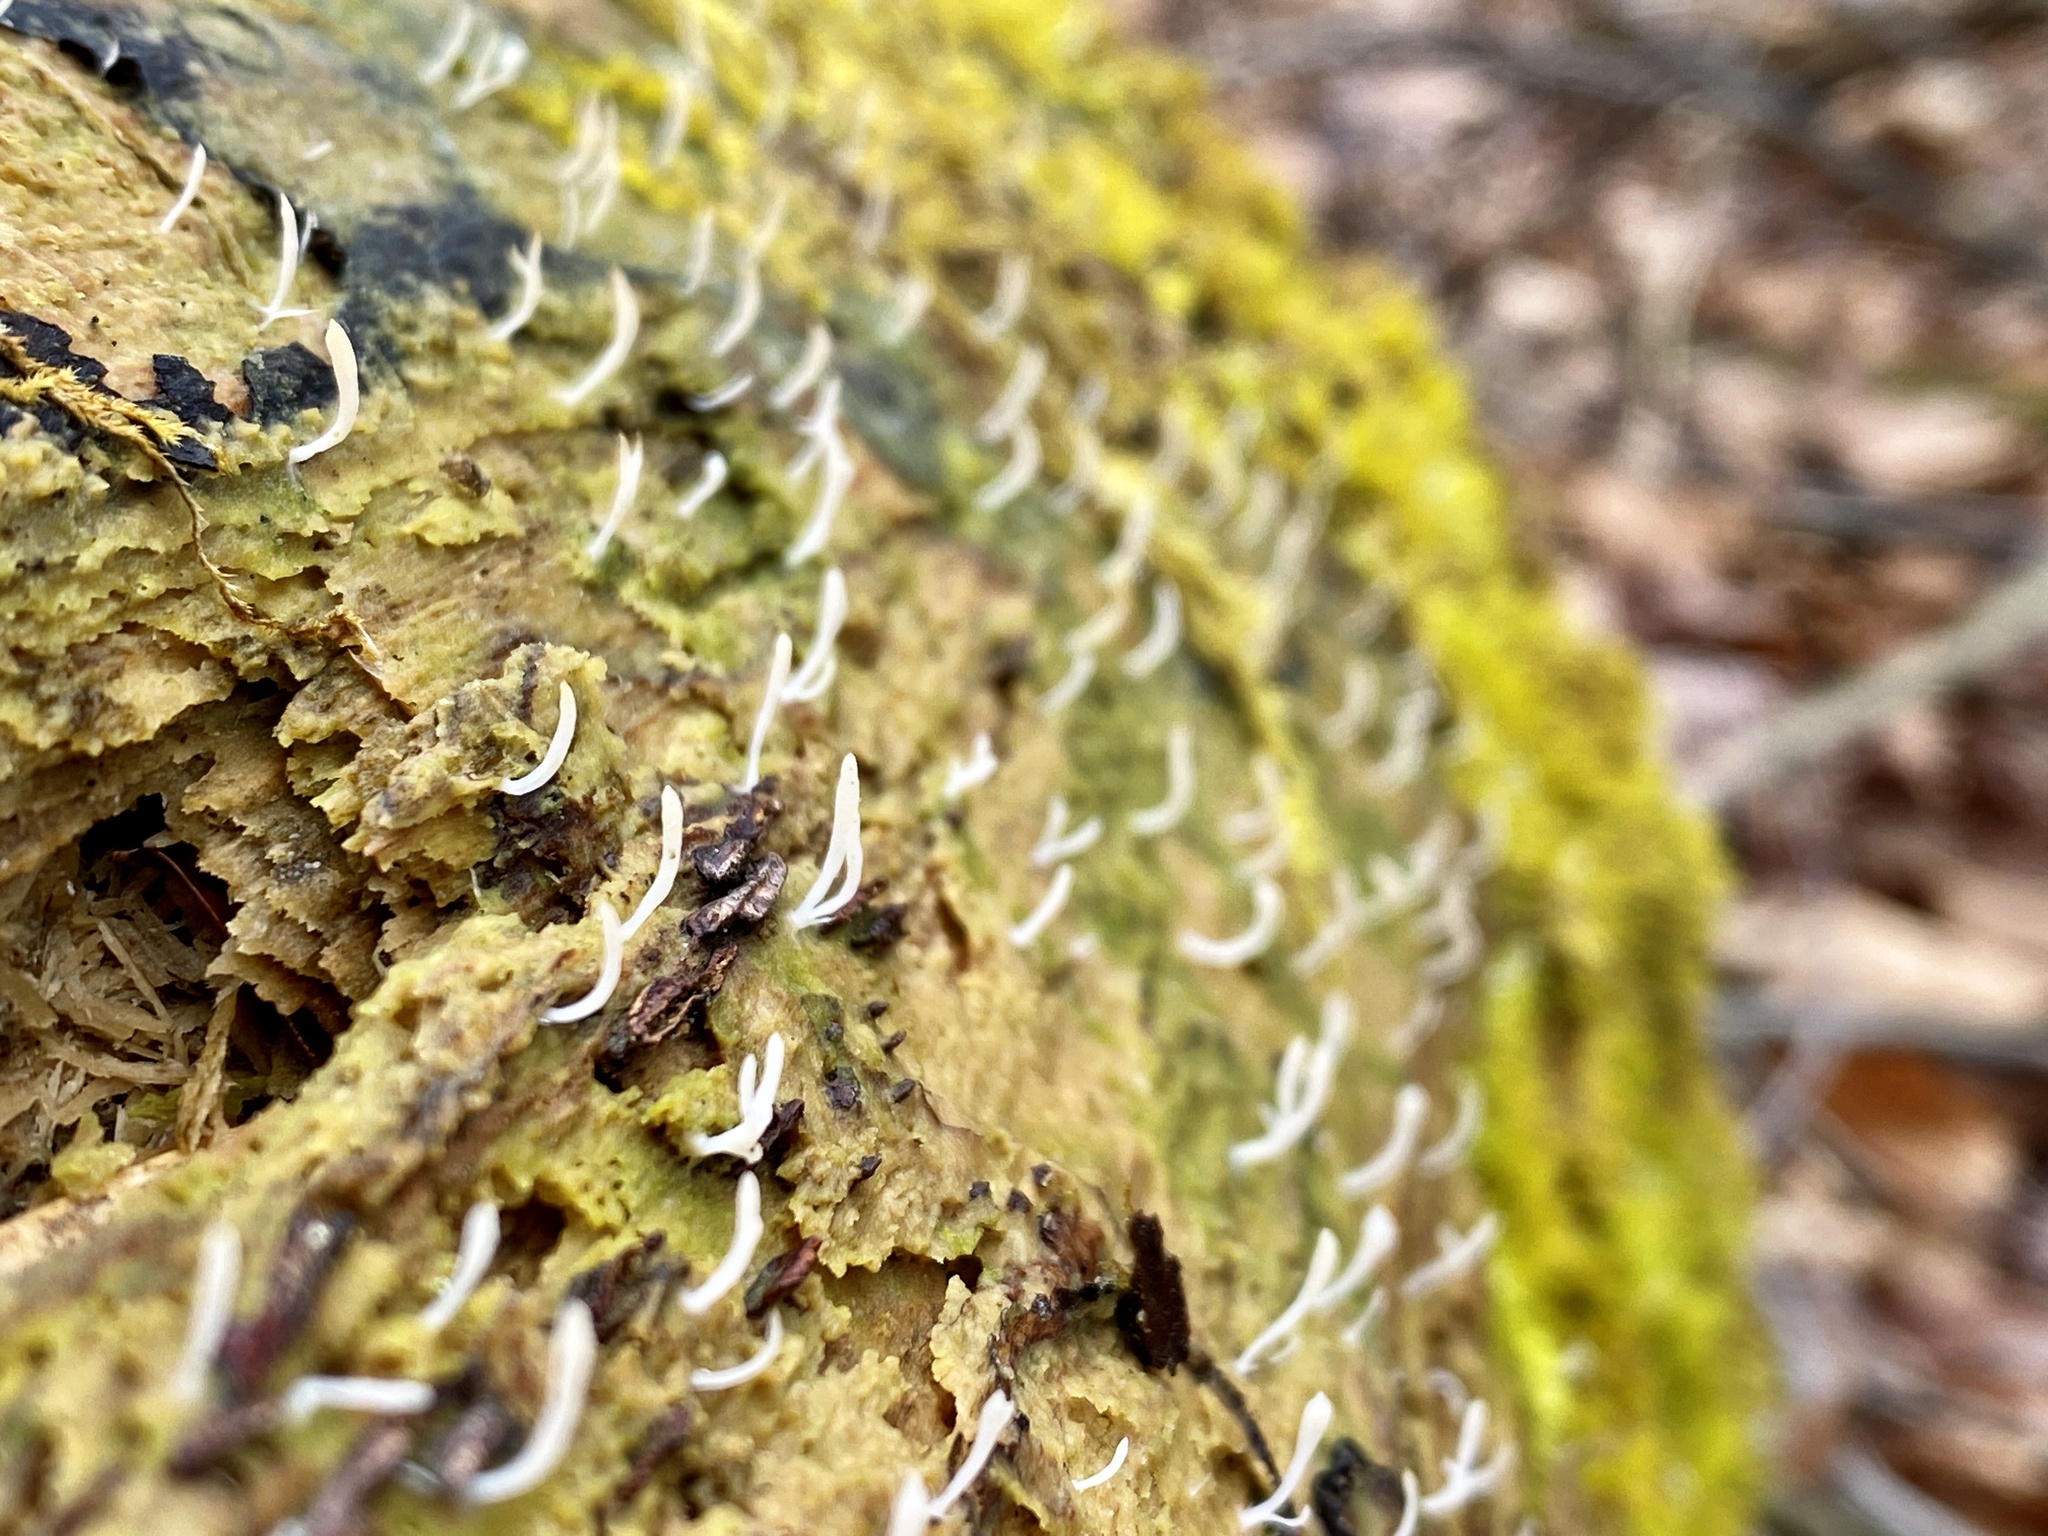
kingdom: Fungi
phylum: Basidiomycota
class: Agaricomycetes
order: Cantharellales
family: Hydnaceae
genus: Multiclavula
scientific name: Multiclavula mucida
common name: White green-algae coral
